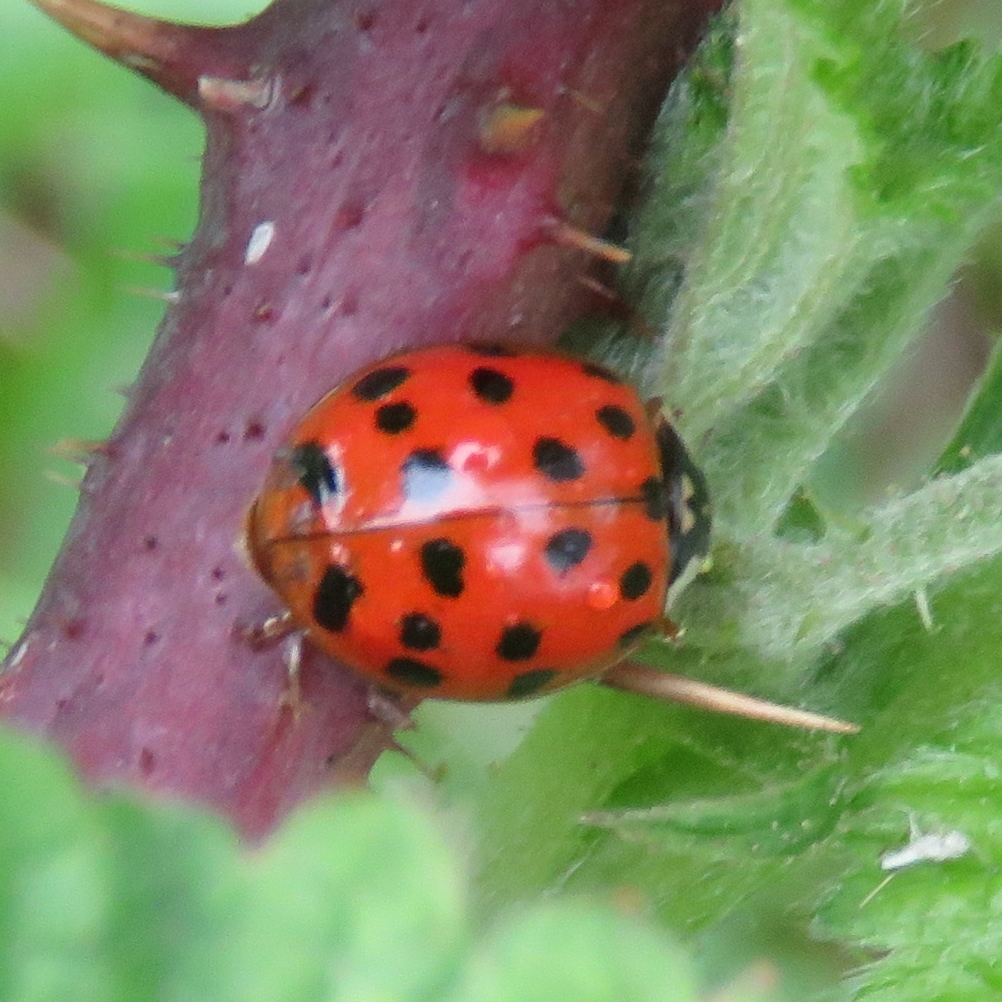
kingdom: Animalia
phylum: Arthropoda
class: Insecta
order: Coleoptera
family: Coccinellidae
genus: Harmonia
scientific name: Harmonia axyridis
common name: Harlequin ladybird
